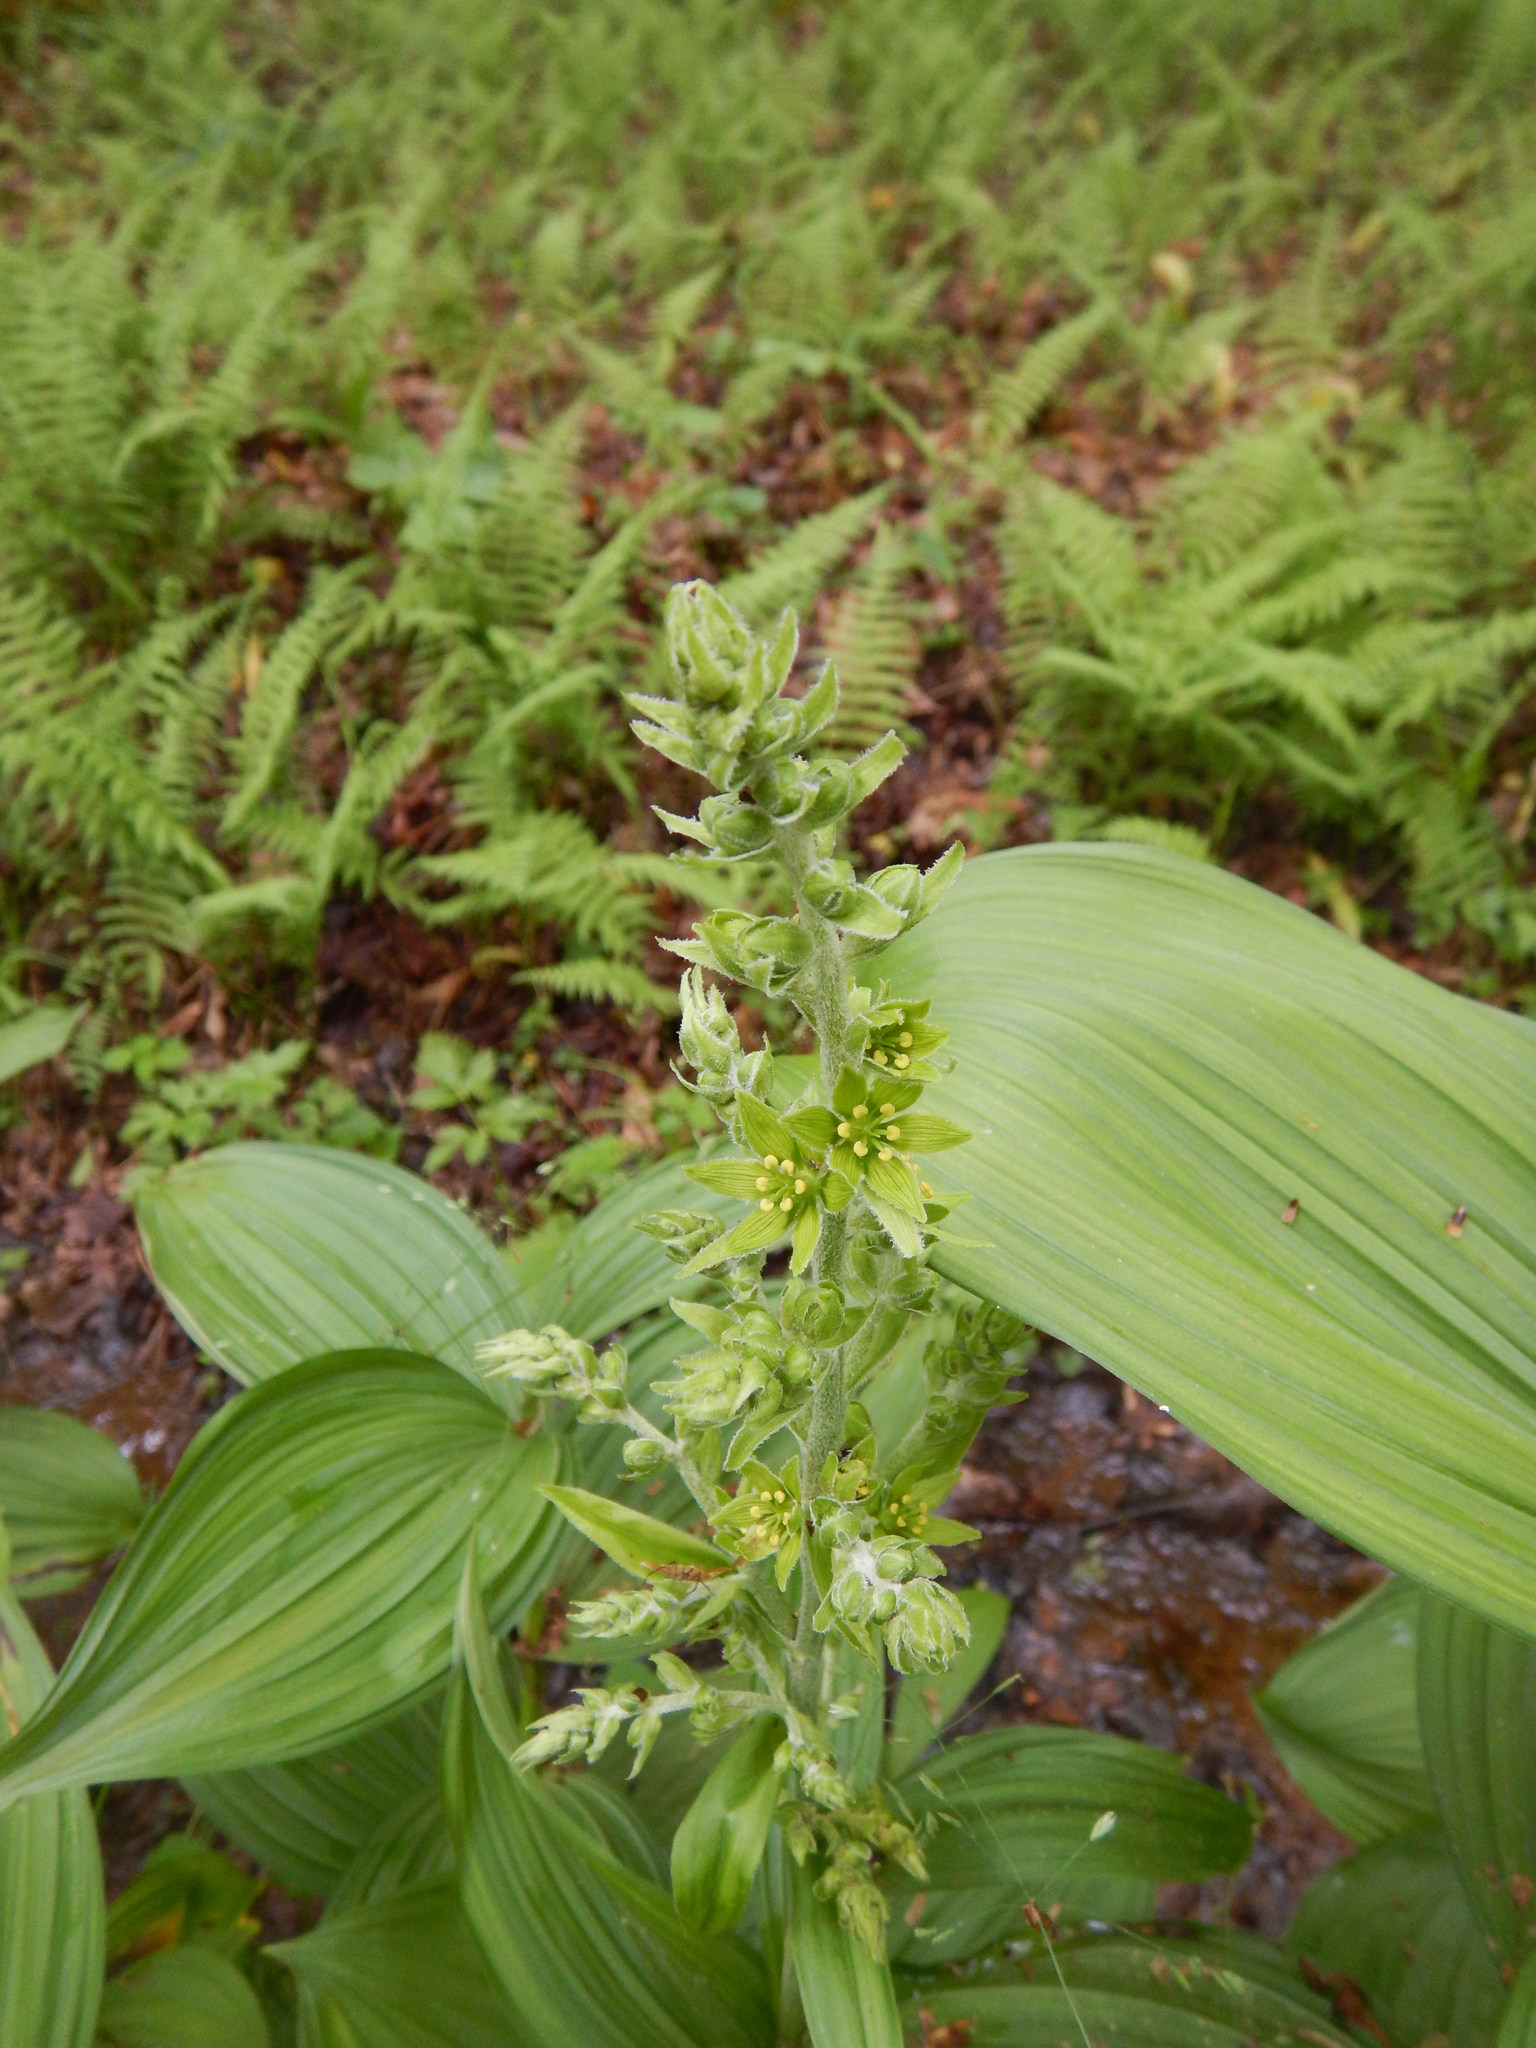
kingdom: Plantae
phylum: Tracheophyta
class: Liliopsida
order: Liliales
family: Melanthiaceae
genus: Veratrum
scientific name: Veratrum viride
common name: American false hellebore
